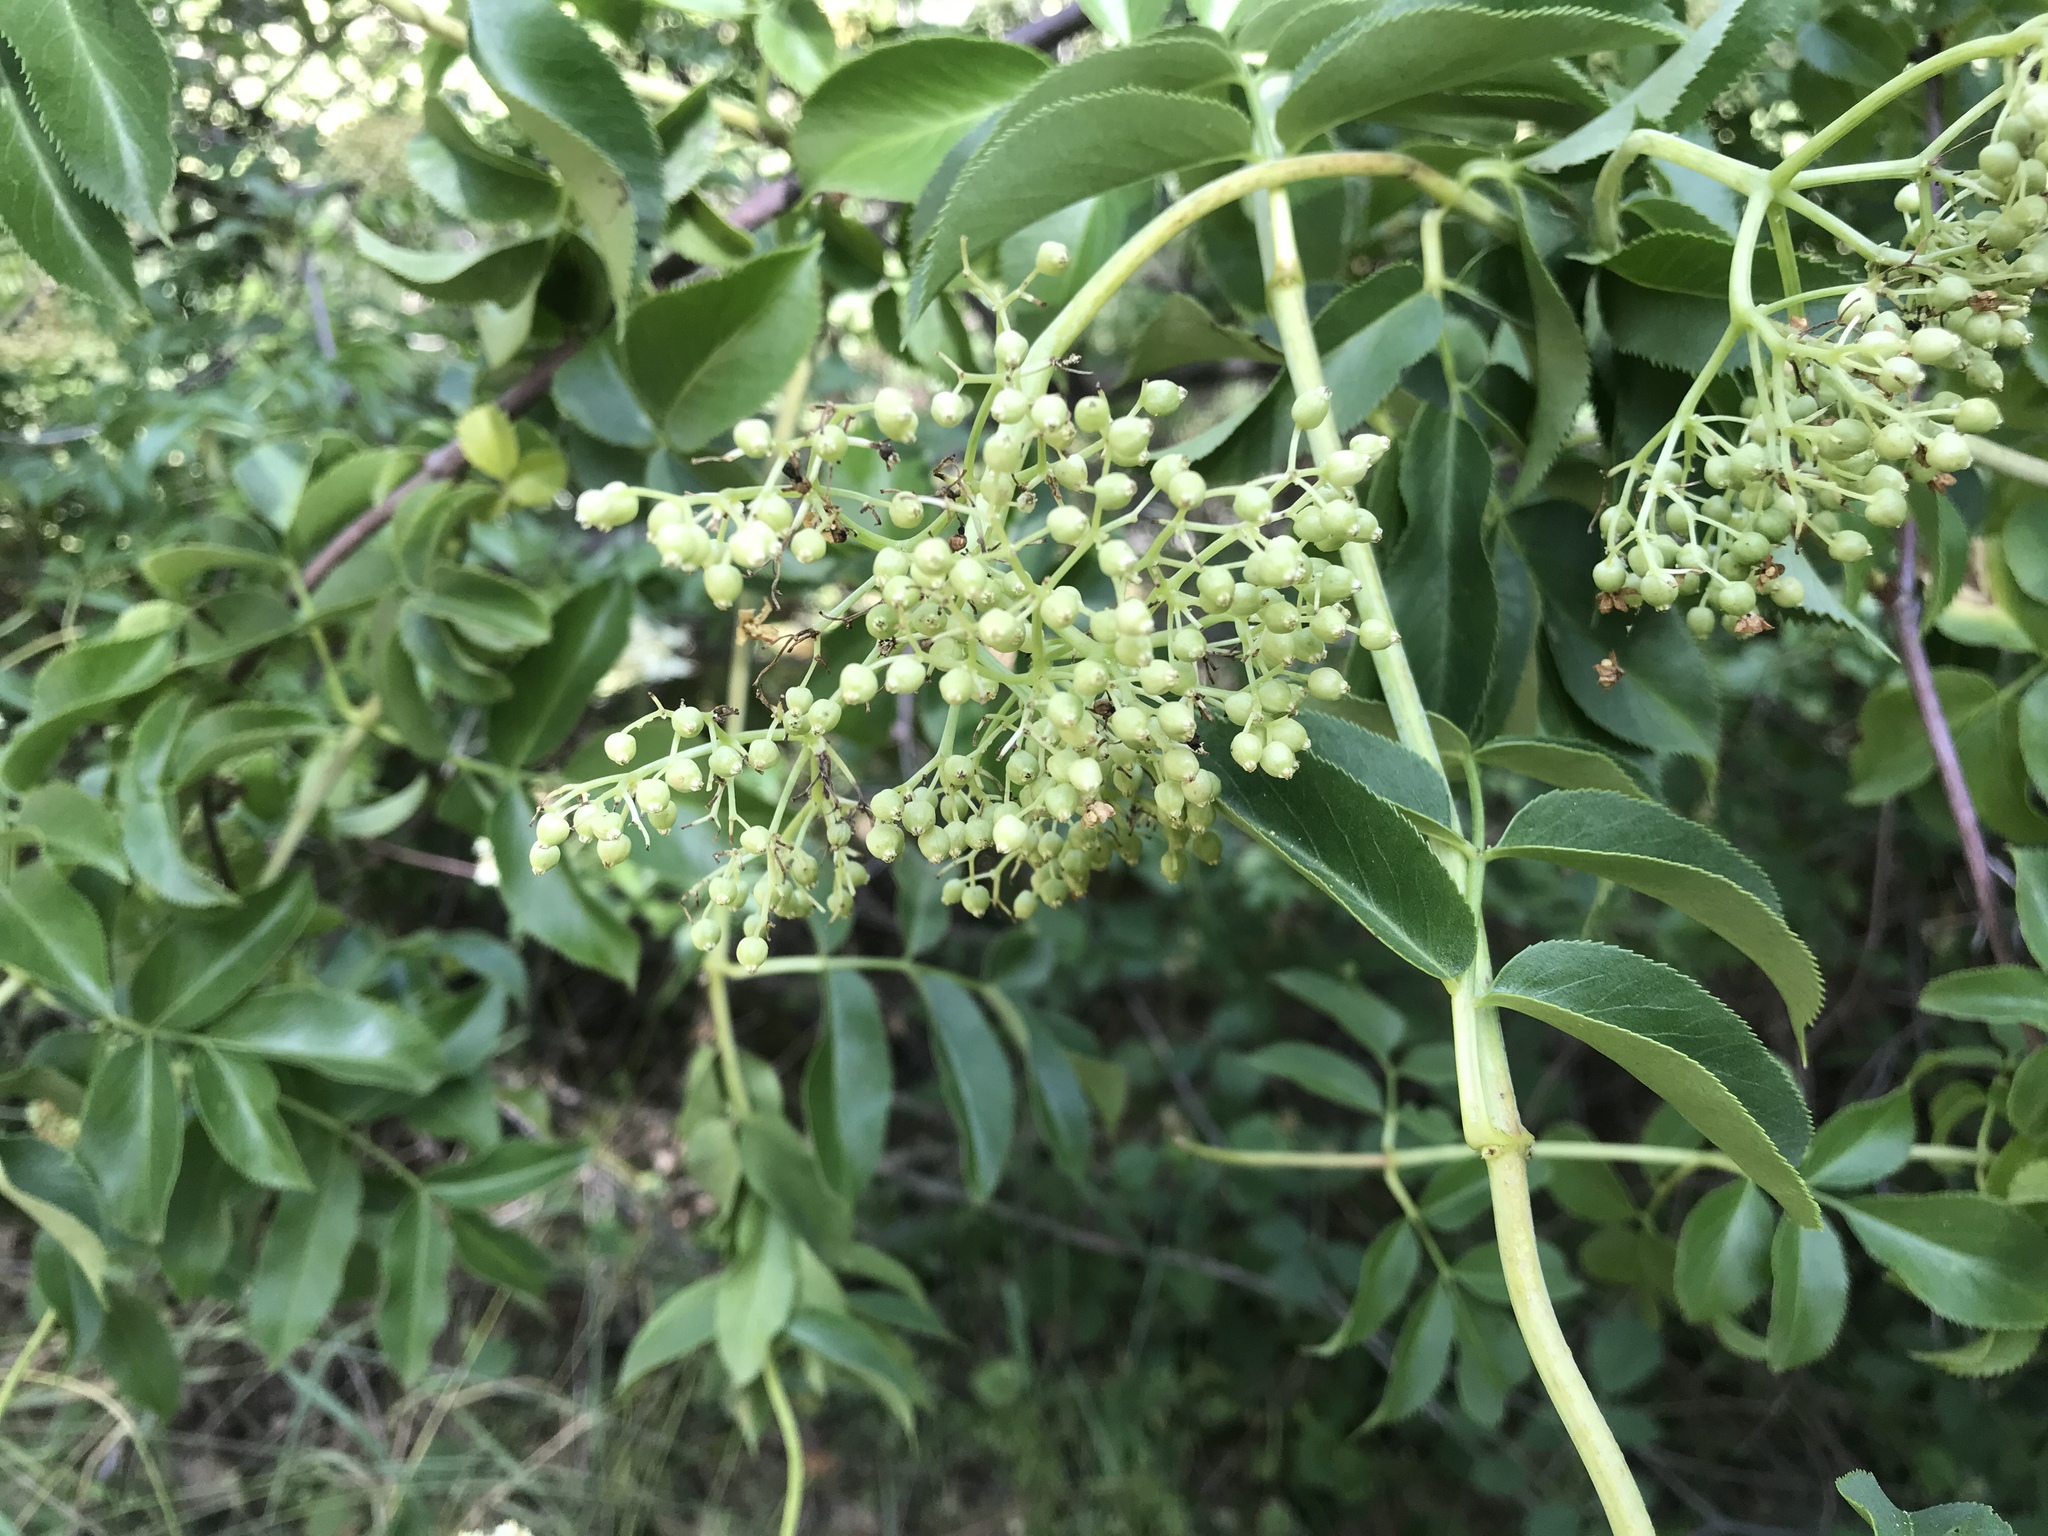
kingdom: Plantae
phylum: Tracheophyta
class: Magnoliopsida
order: Dipsacales
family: Viburnaceae
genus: Sambucus
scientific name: Sambucus cerulea
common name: Blue elder
